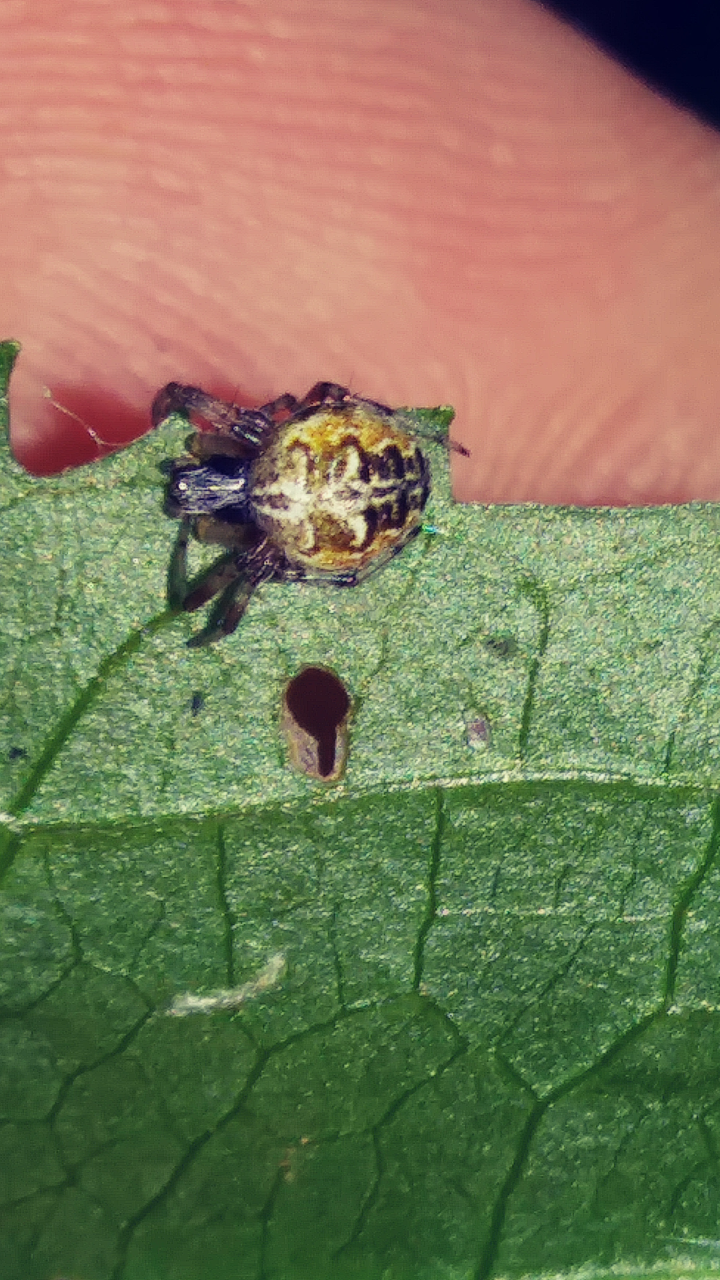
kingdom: Animalia
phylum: Arthropoda
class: Arachnida
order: Araneae
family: Araneidae
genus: Metepeira
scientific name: Metepeira labyrinthea
